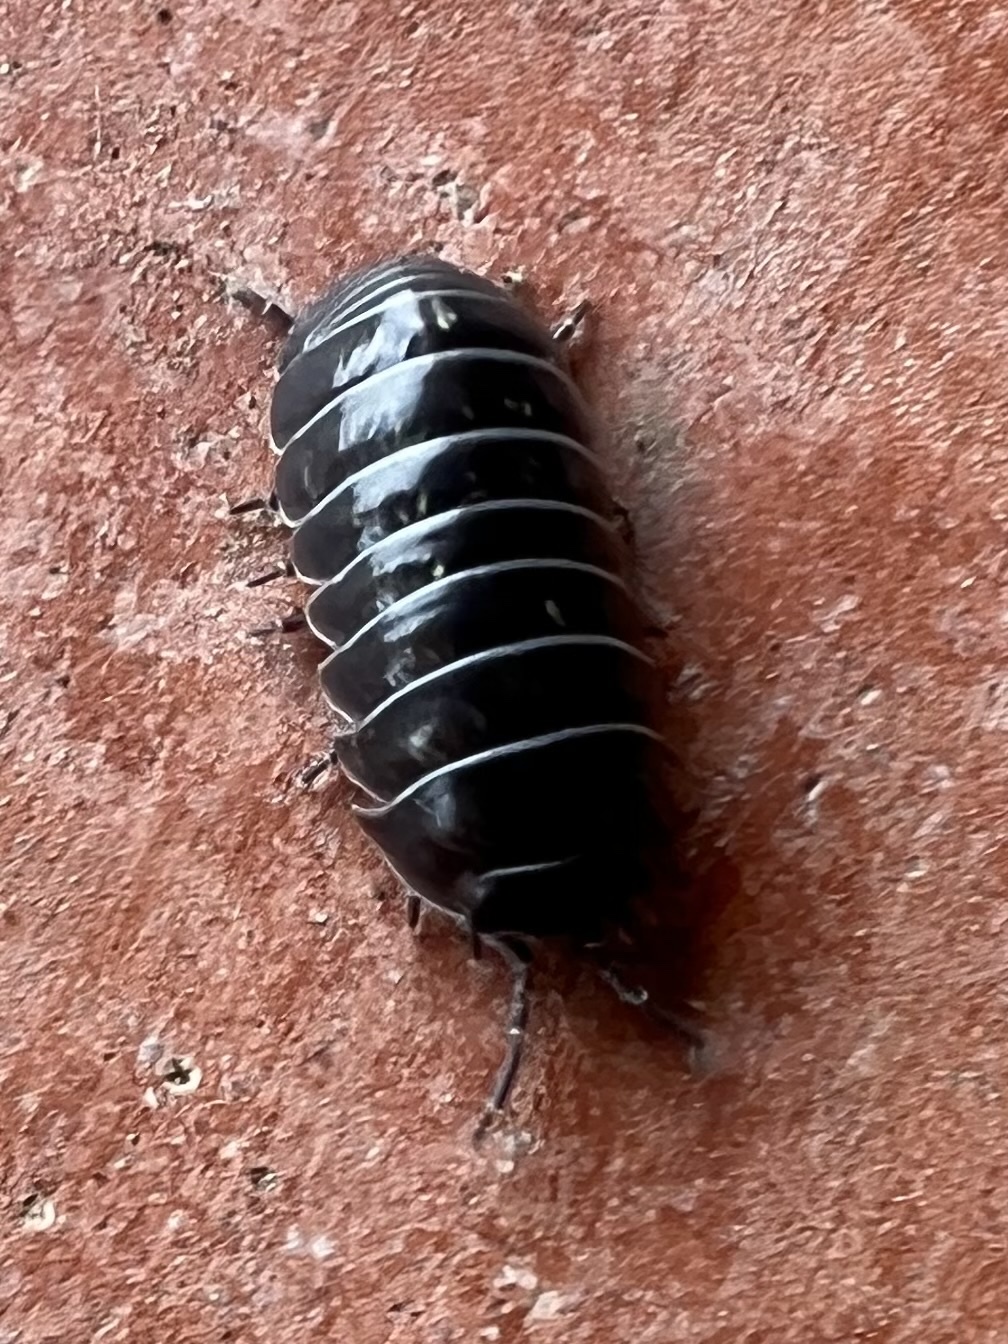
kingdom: Animalia
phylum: Arthropoda
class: Malacostraca
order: Isopoda
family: Armadillidiidae
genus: Armadillidium
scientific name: Armadillidium vulgare
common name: Common pill woodlouse
